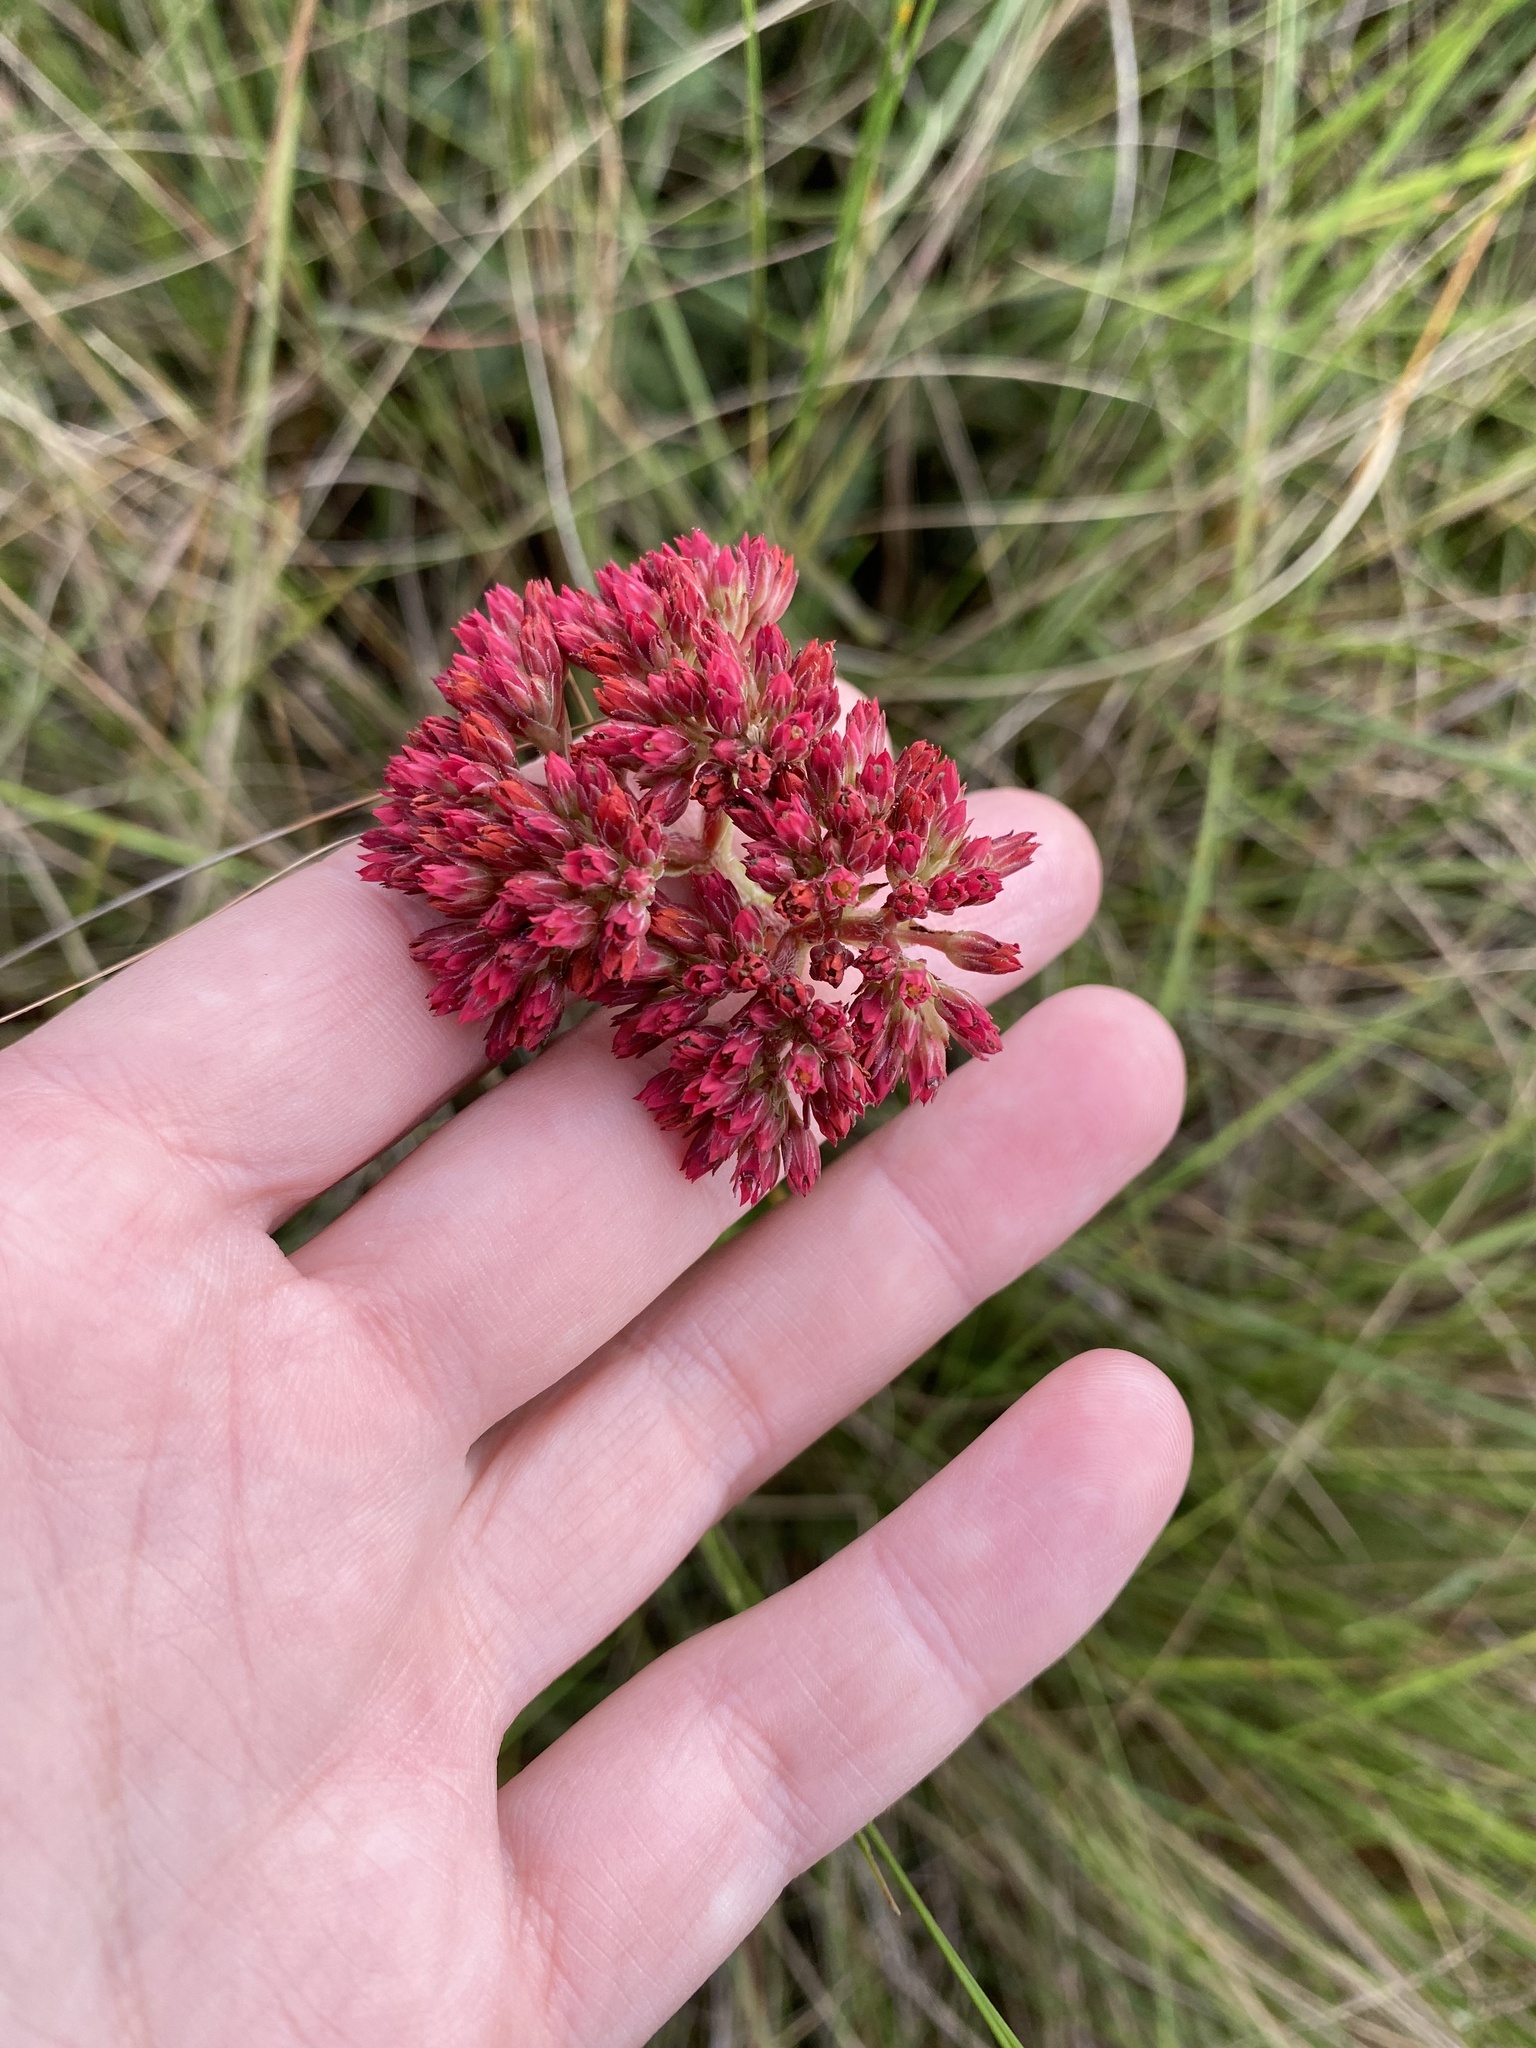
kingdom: Plantae
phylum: Tracheophyta
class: Magnoliopsida
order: Saxifragales
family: Crassulaceae
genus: Crassula
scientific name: Crassula alba
